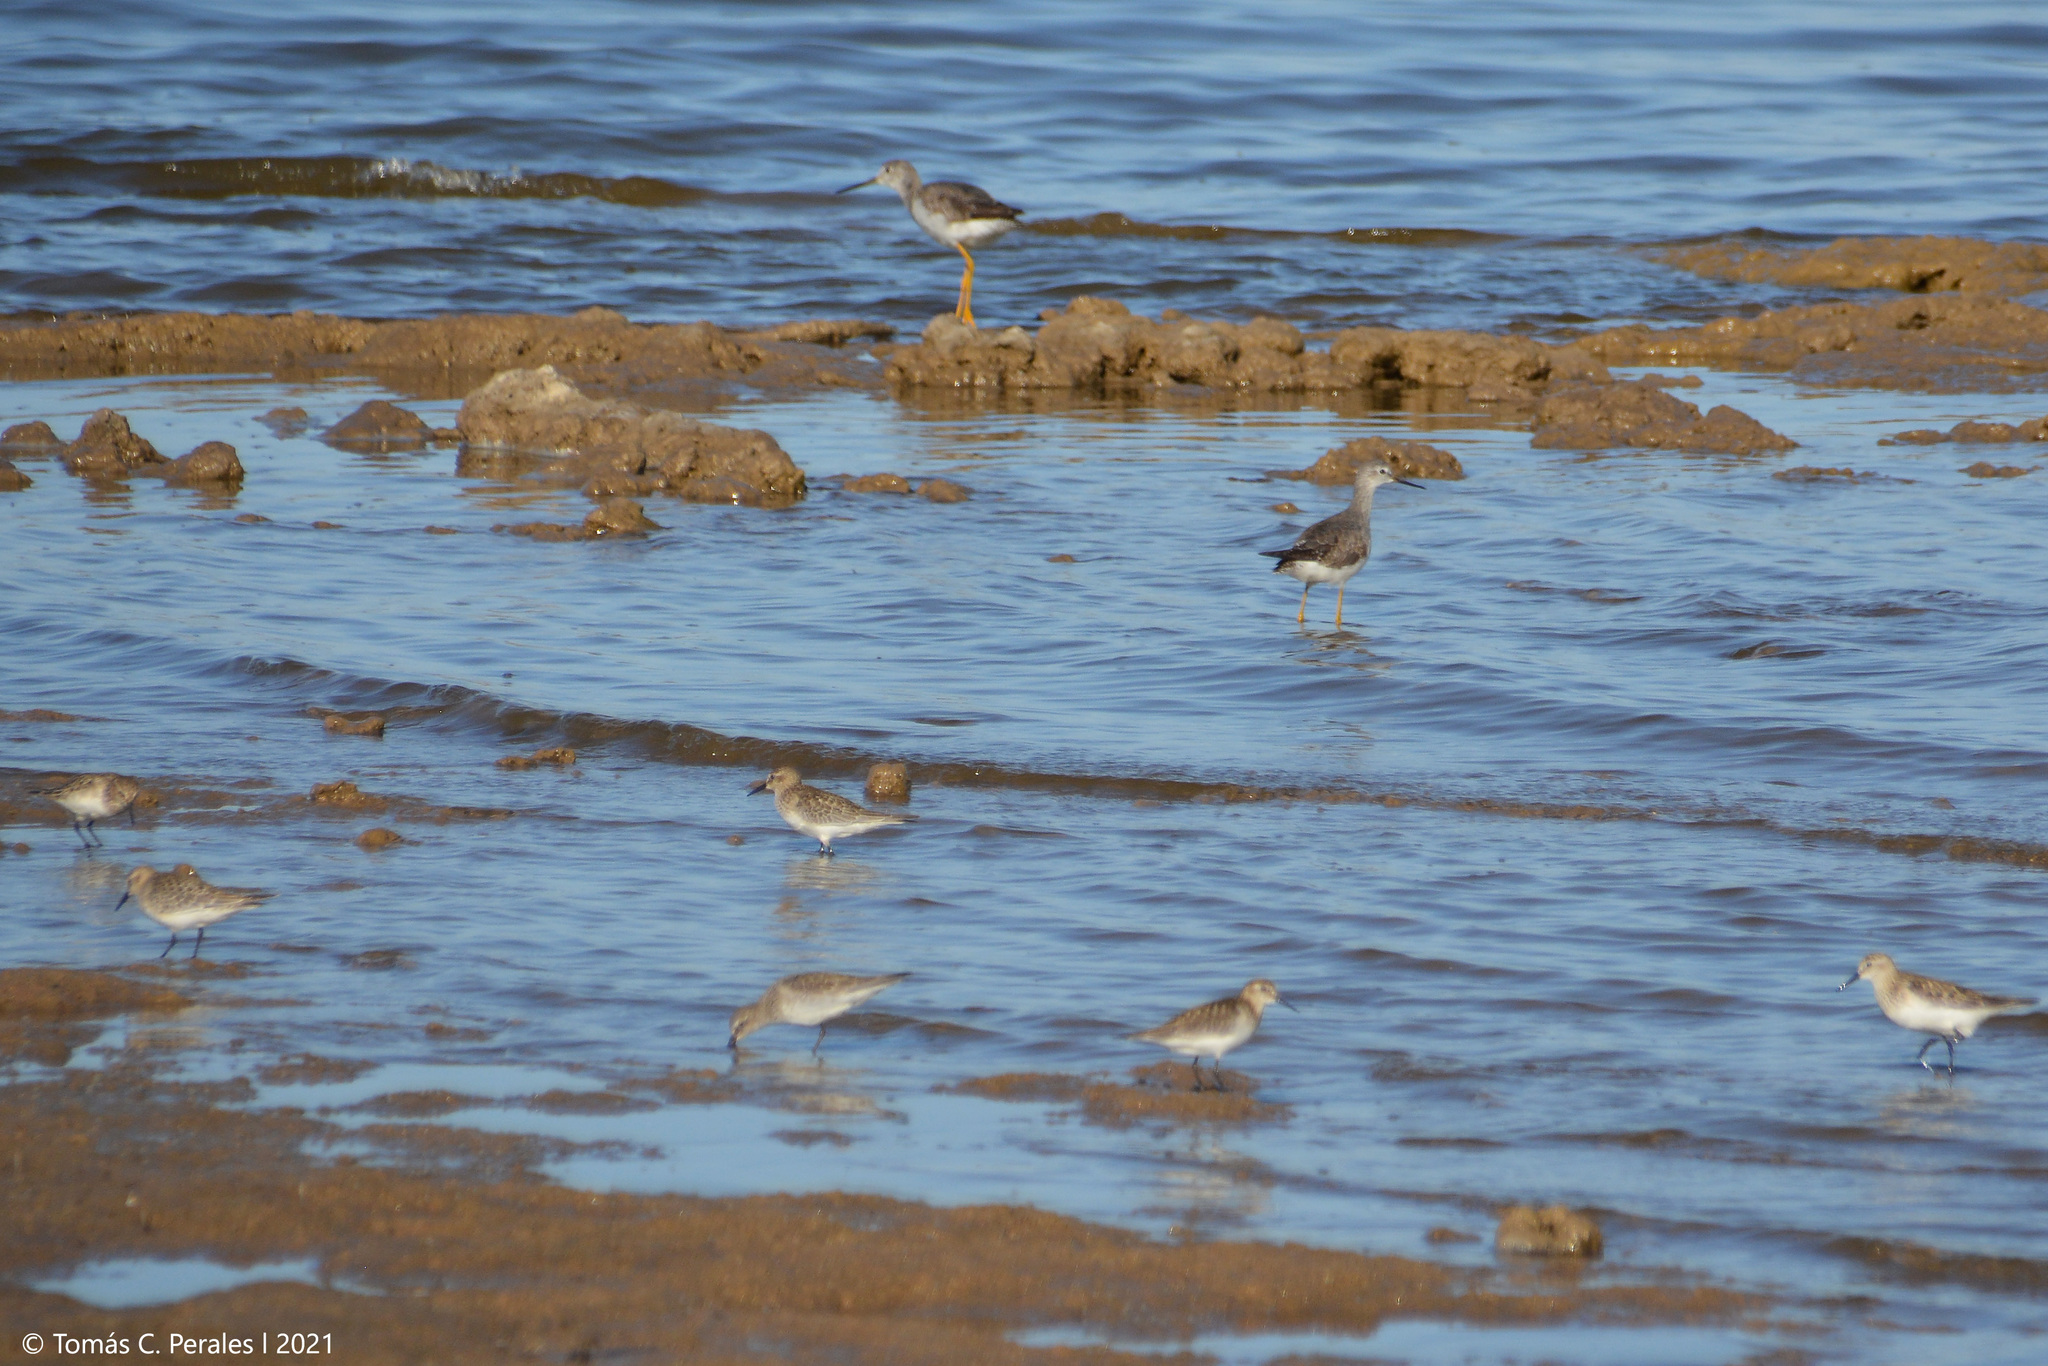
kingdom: Animalia
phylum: Chordata
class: Aves
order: Charadriiformes
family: Scolopacidae
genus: Tringa
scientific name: Tringa melanoleuca
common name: Greater yellowlegs
